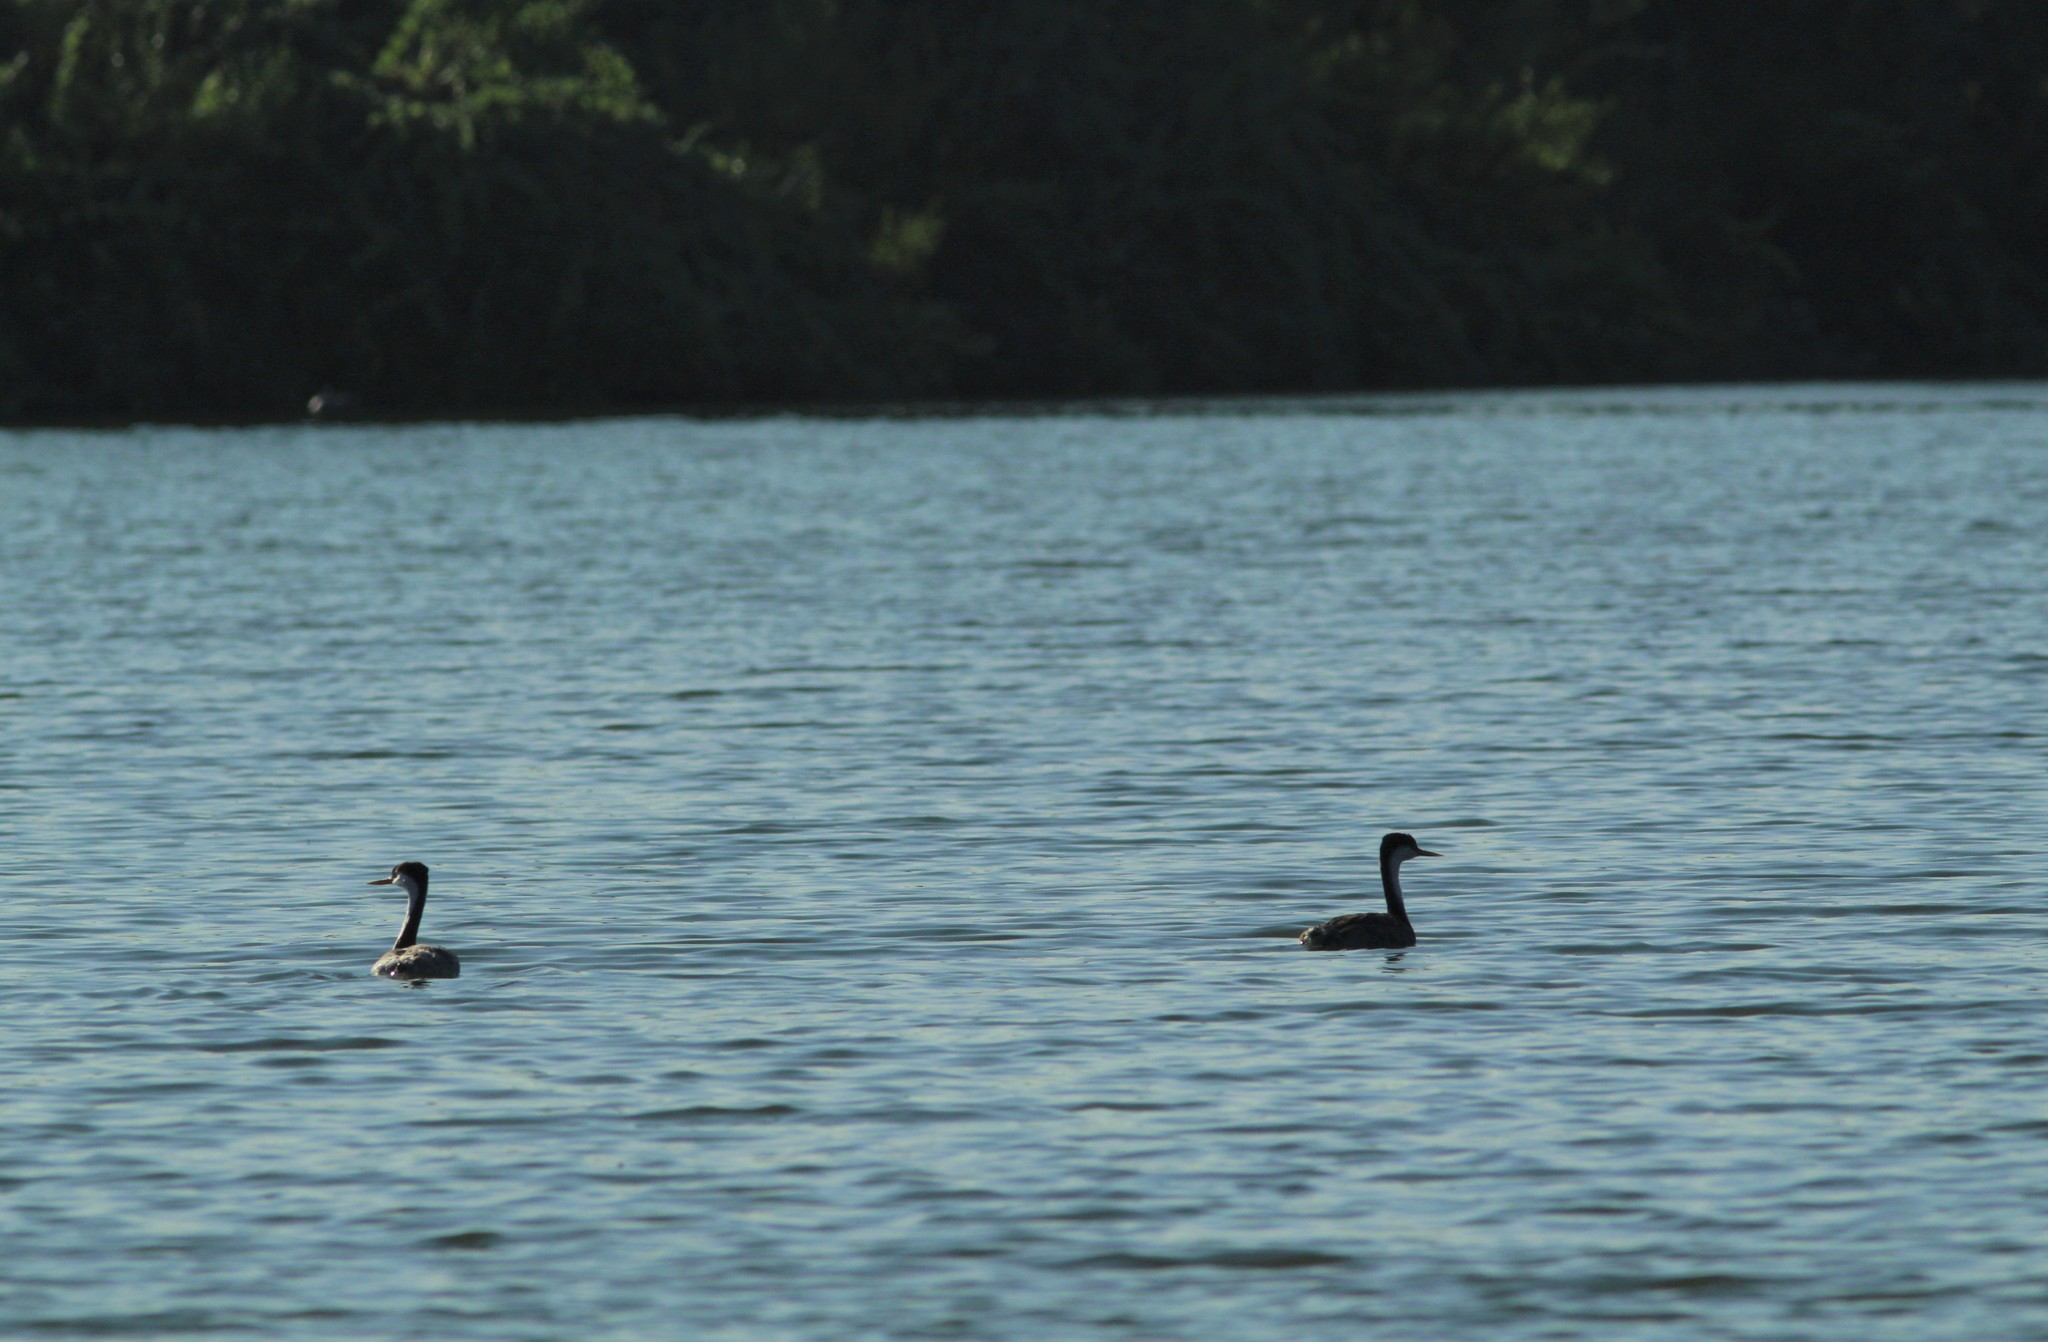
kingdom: Animalia
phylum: Chordata
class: Aves
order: Podicipediformes
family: Podicipedidae
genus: Aechmophorus
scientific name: Aechmophorus occidentalis
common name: Western grebe
